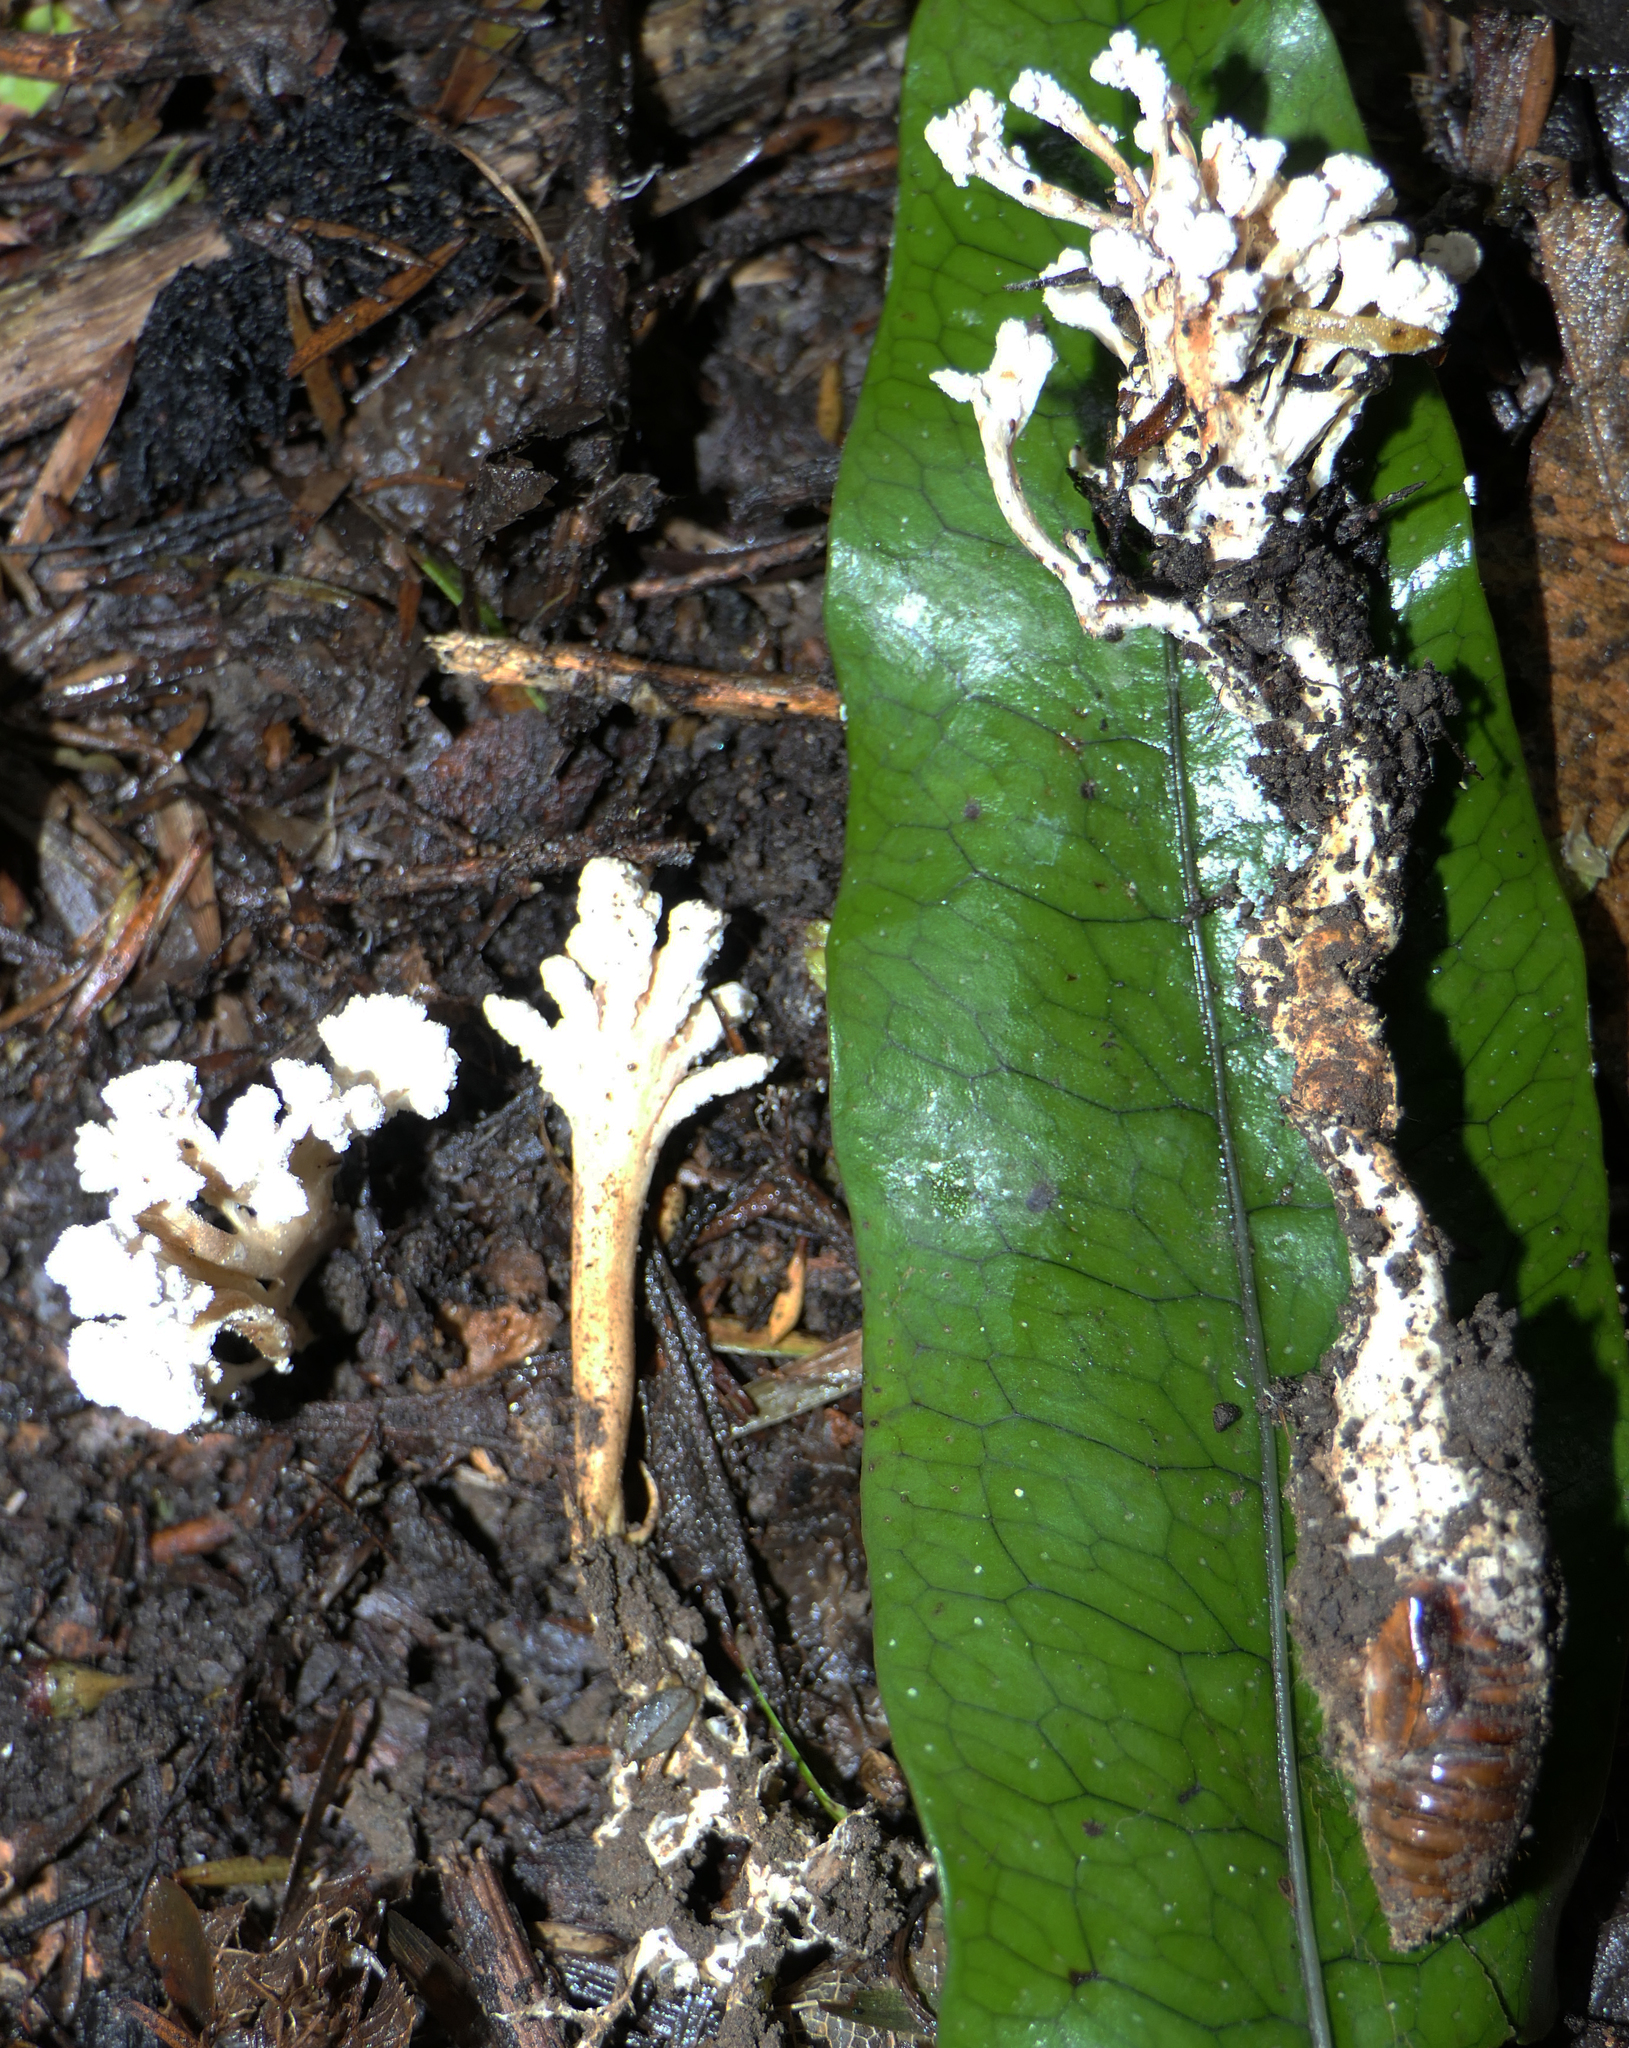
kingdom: Fungi
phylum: Ascomycota
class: Sordariomycetes
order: Hypocreales
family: Cordycipitaceae
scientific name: Cordycipitaceae
